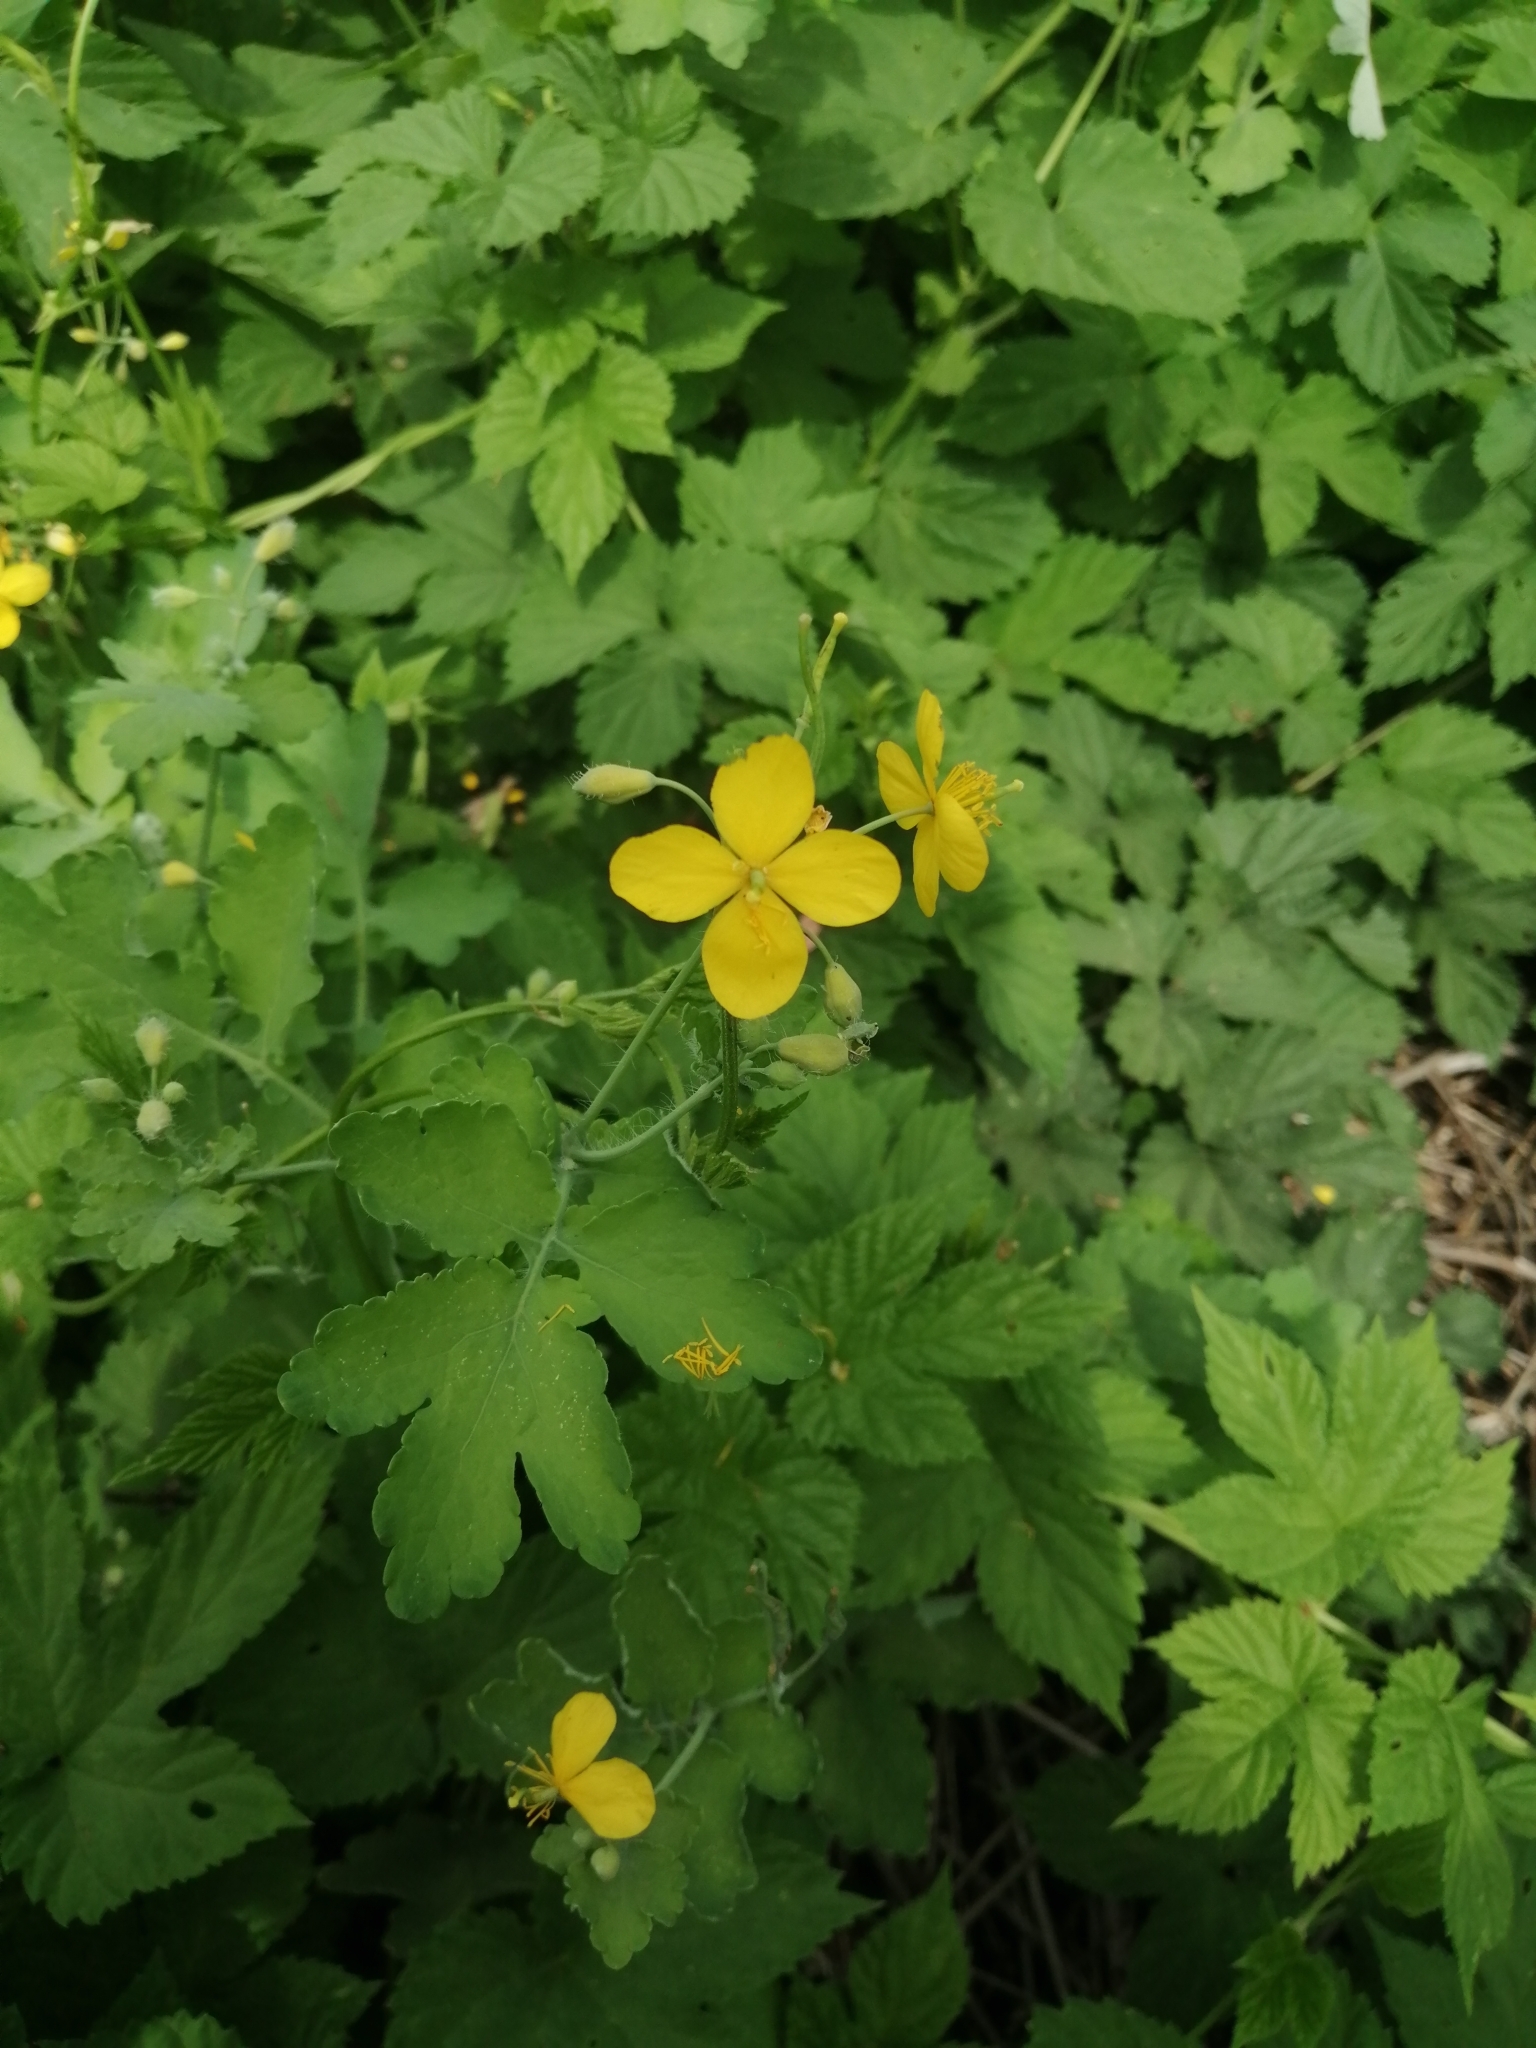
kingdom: Plantae
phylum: Tracheophyta
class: Magnoliopsida
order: Ranunculales
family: Papaveraceae
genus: Chelidonium
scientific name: Chelidonium majus
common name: Greater celandine
